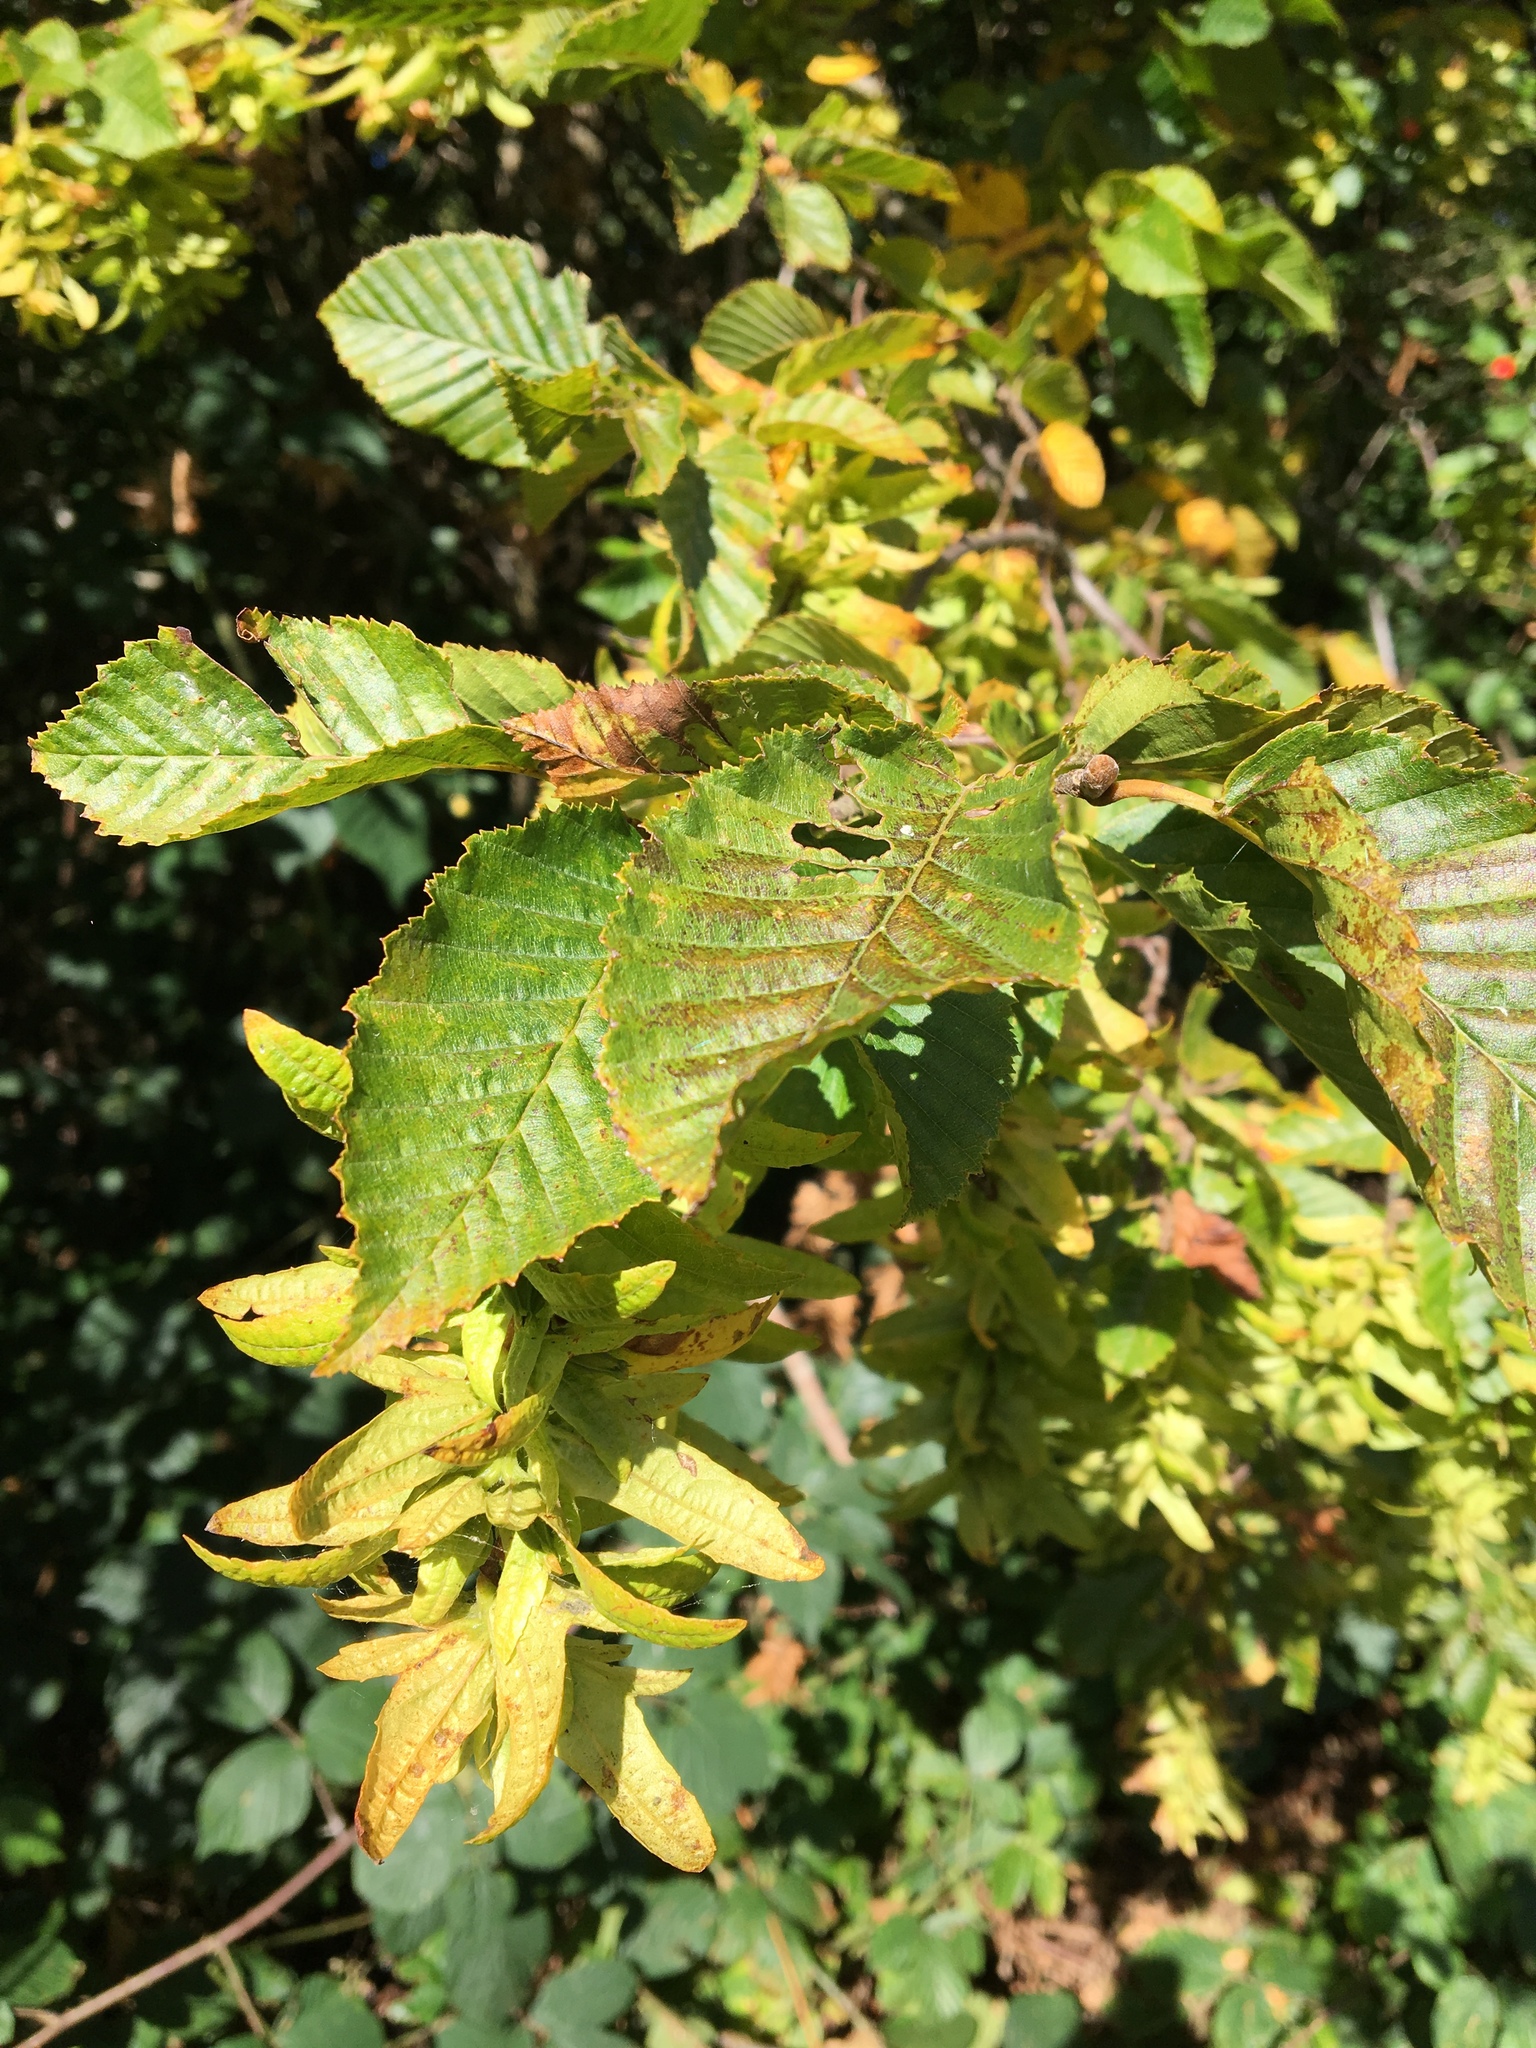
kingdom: Plantae
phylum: Tracheophyta
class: Magnoliopsida
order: Fagales
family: Betulaceae
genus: Carpinus
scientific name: Carpinus betulus
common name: Hornbeam
